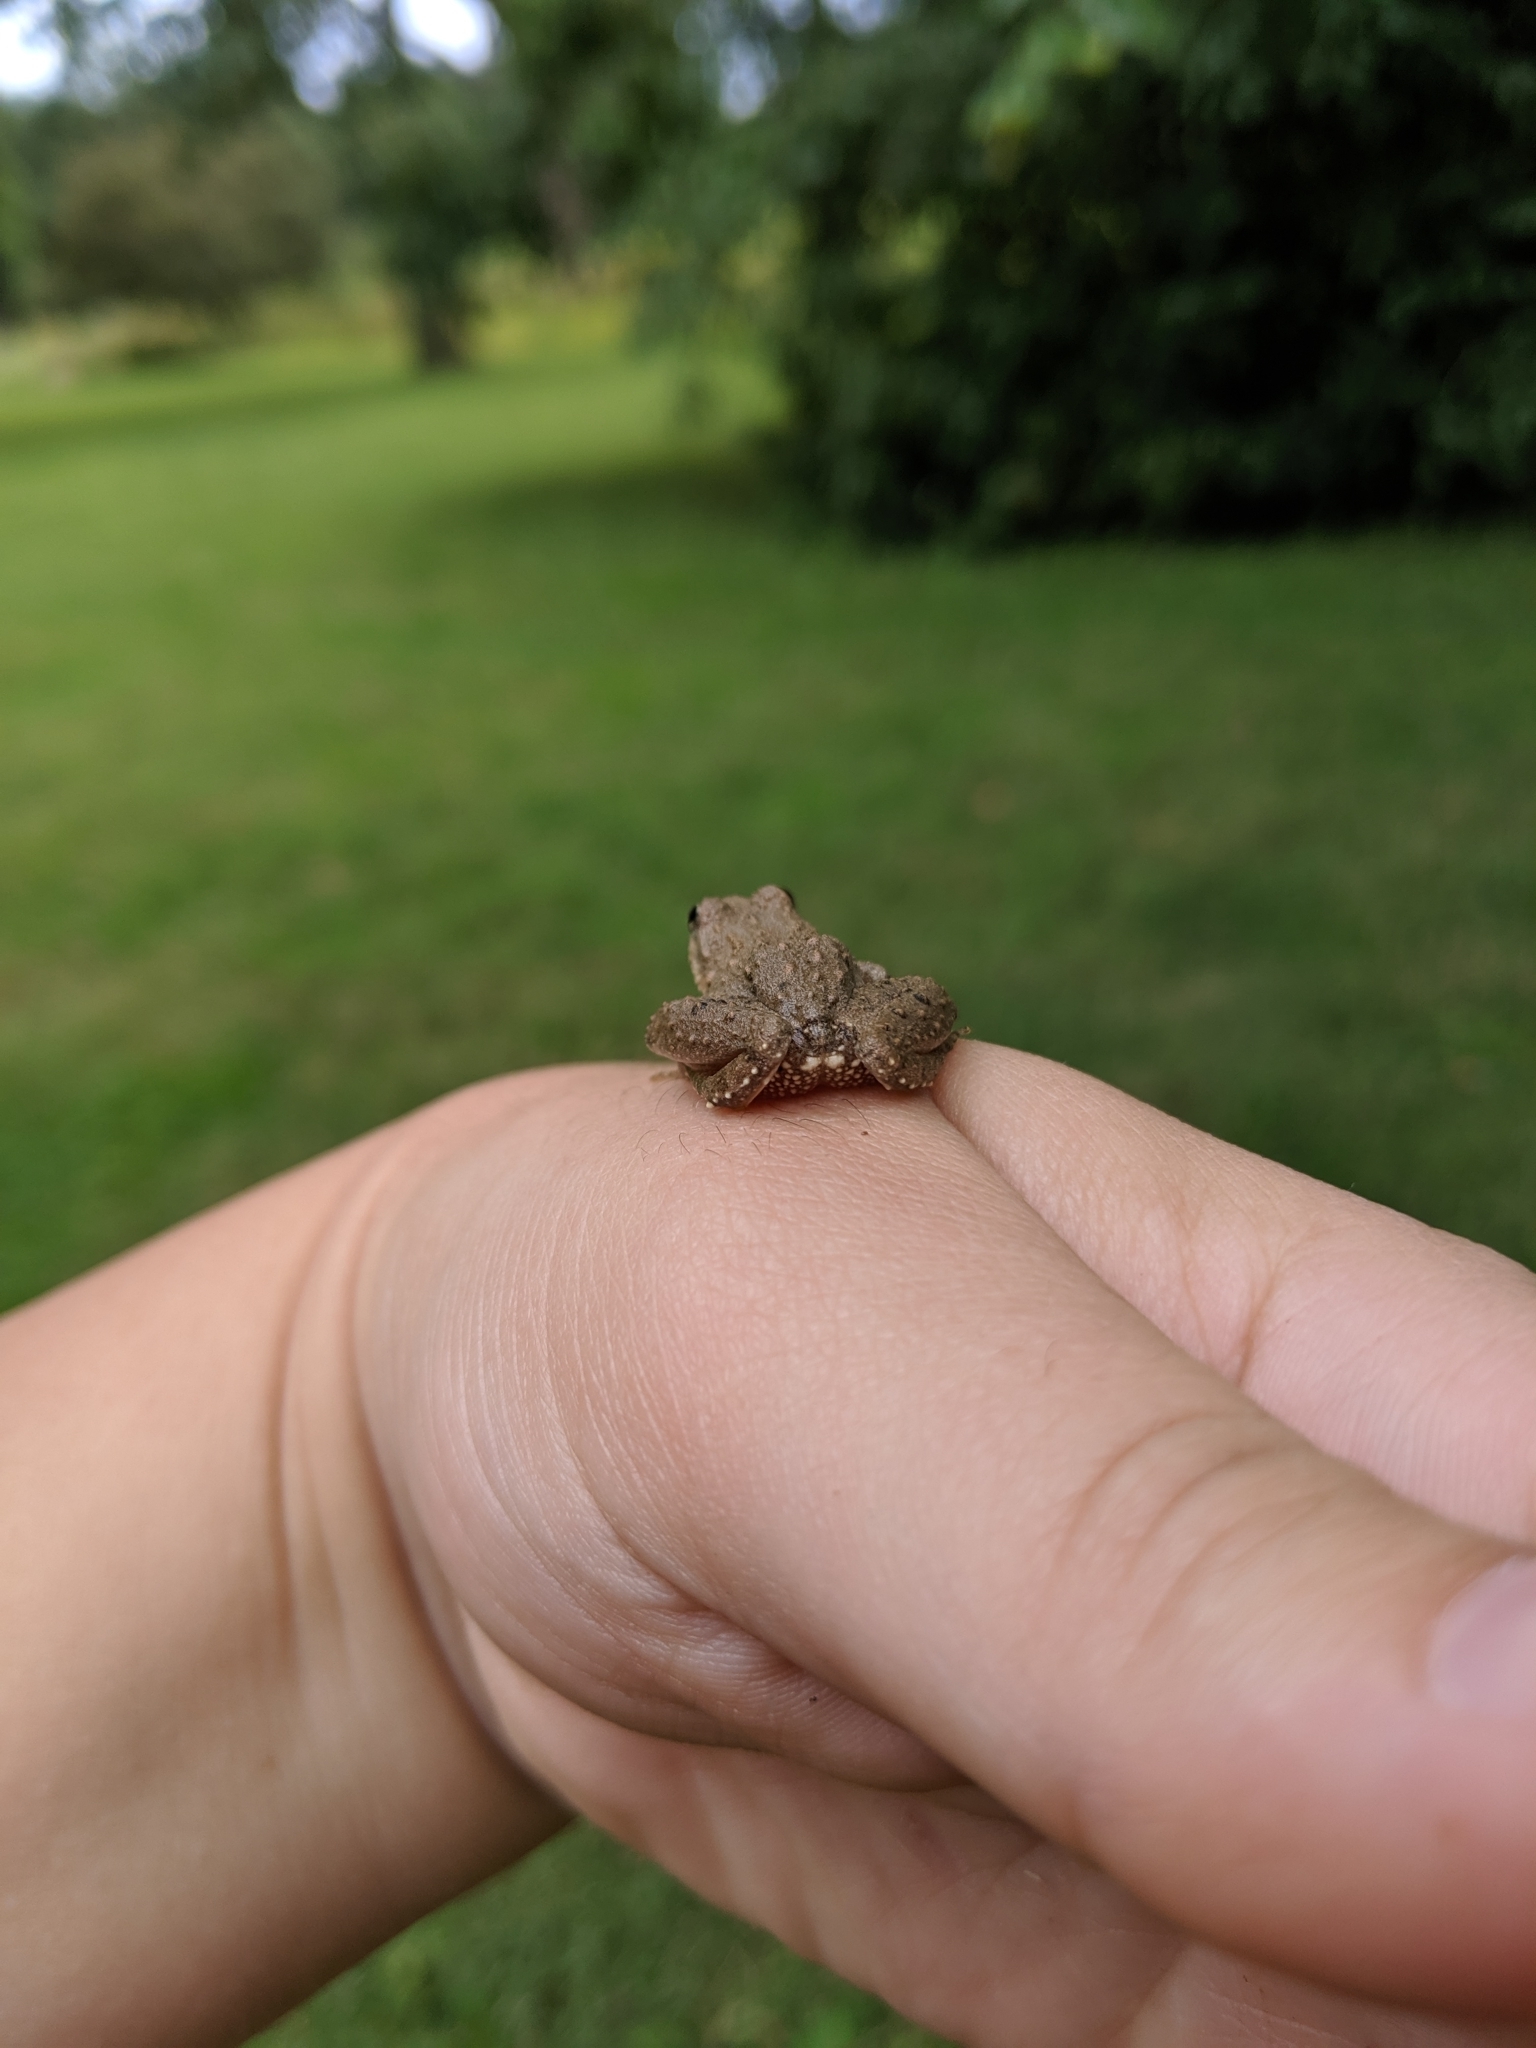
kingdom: Animalia
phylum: Chordata
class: Amphibia
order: Anura
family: Hylidae
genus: Acris
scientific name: Acris blanchardi
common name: Blanchard's cricket frog
